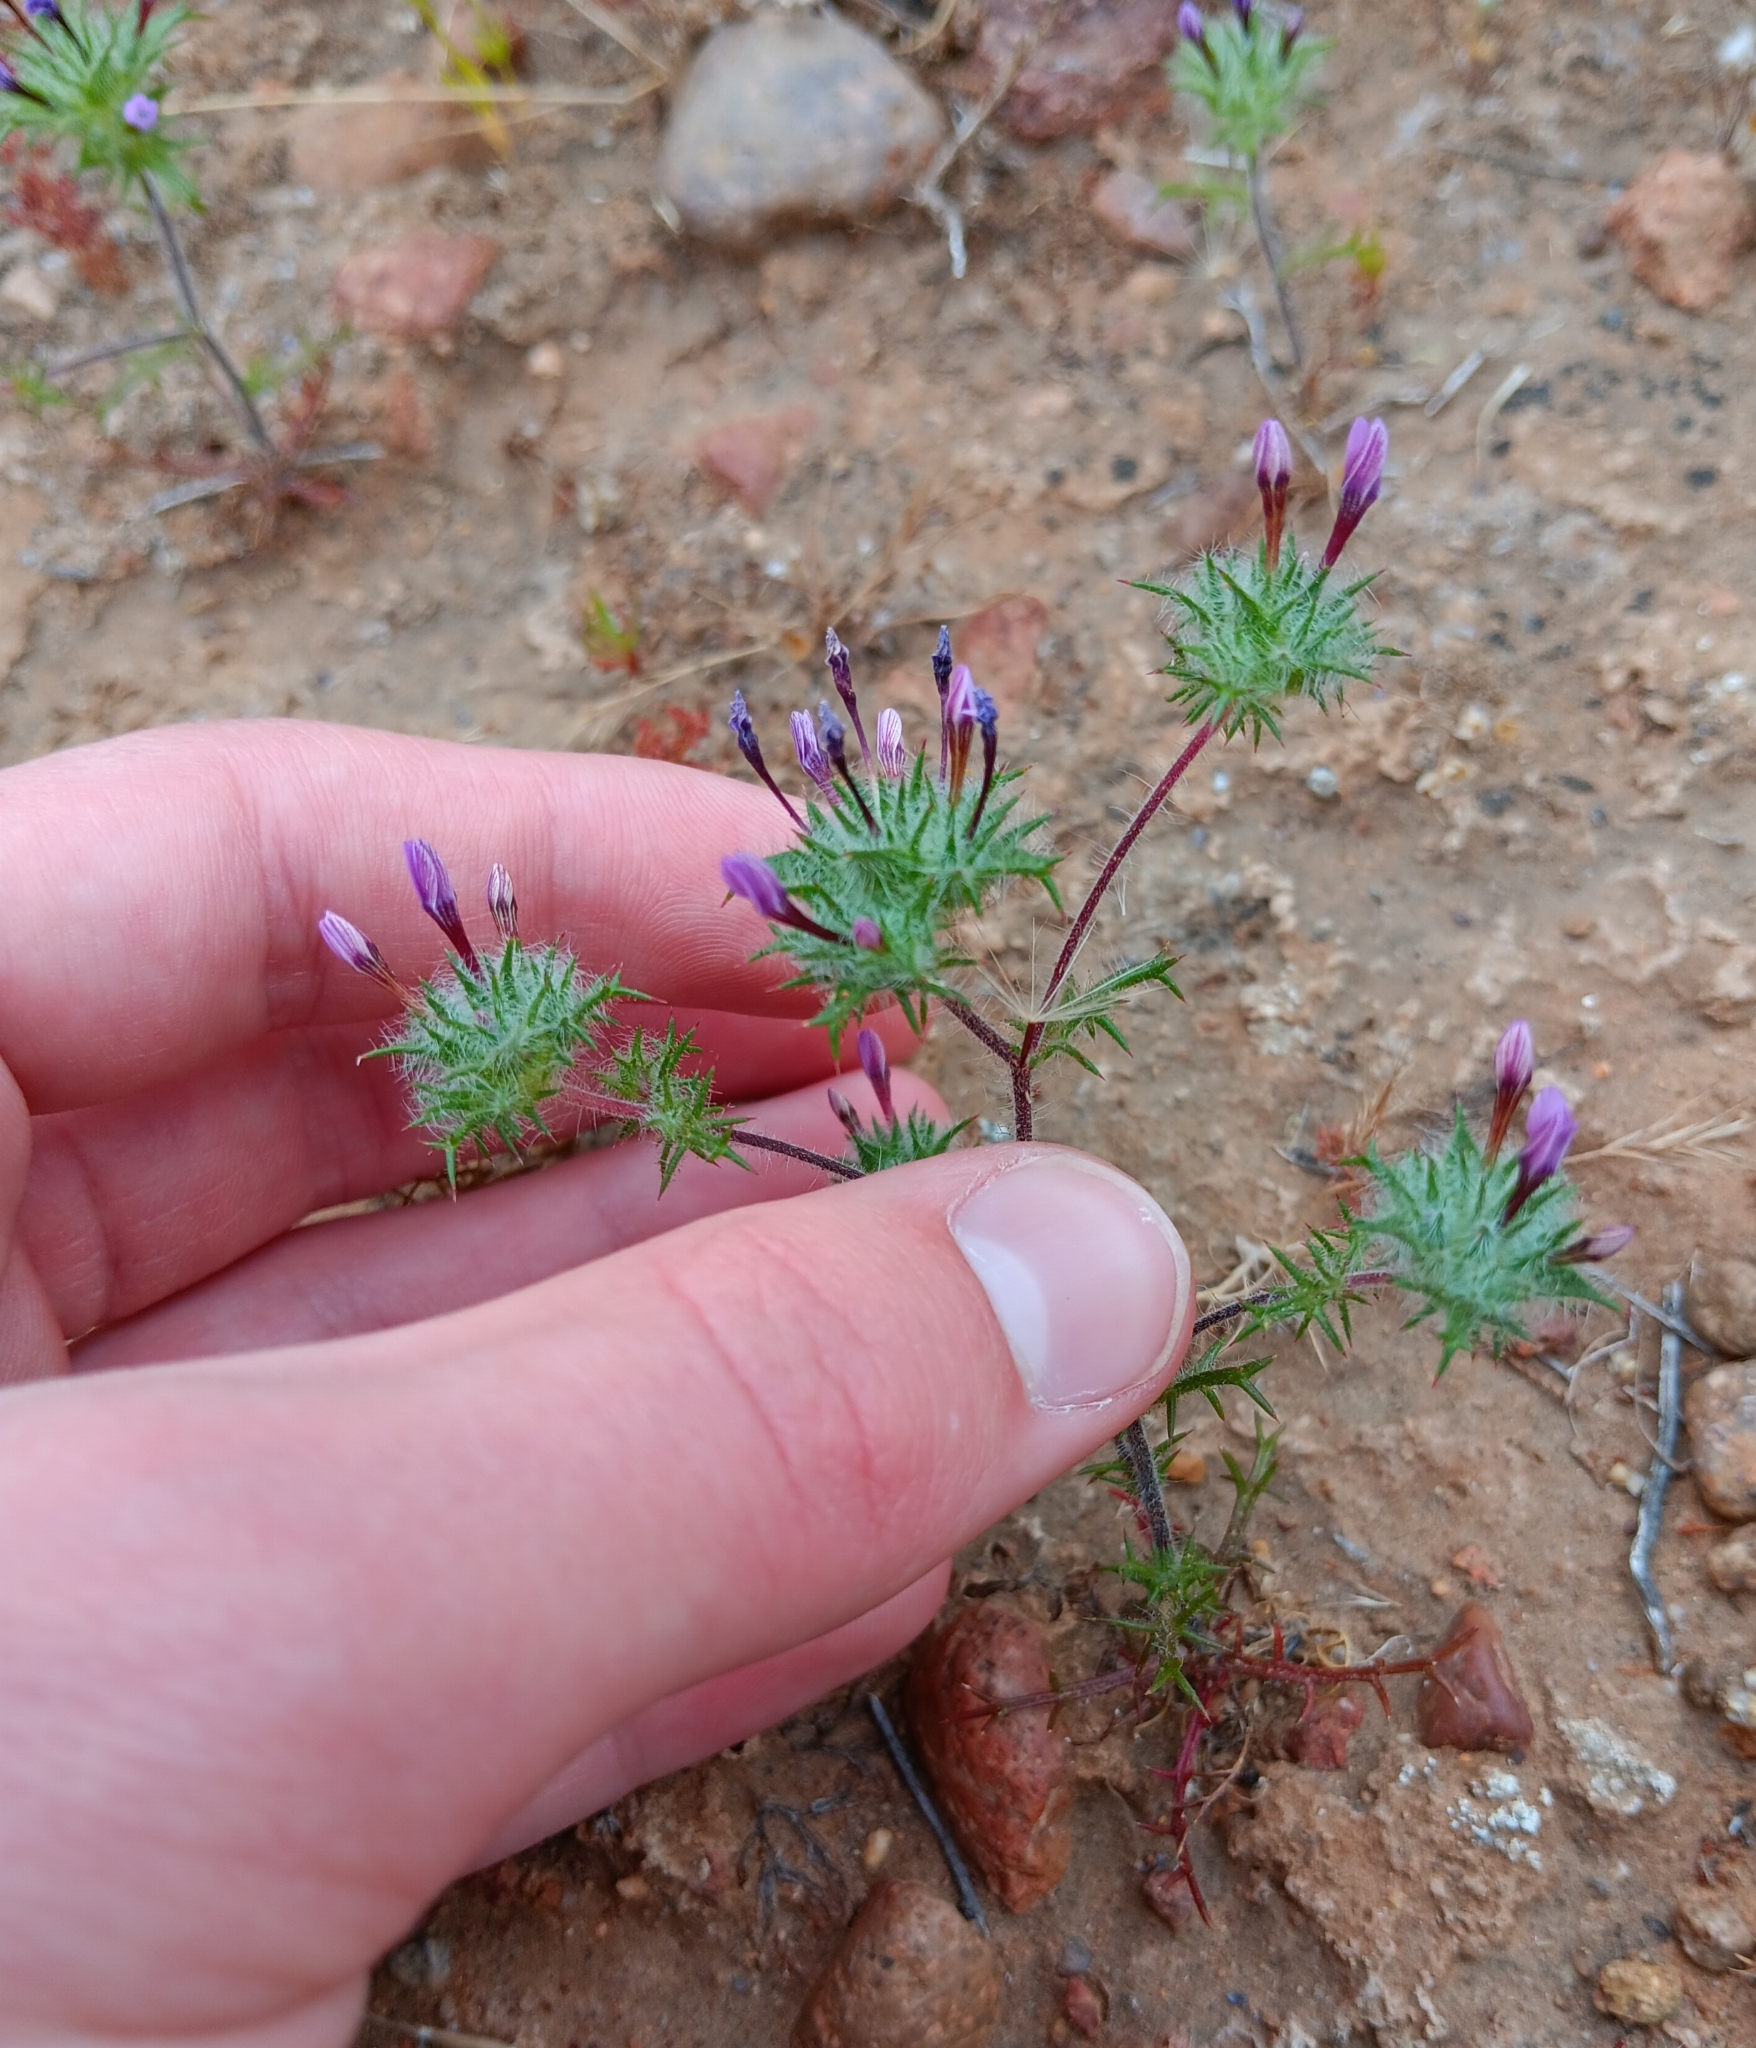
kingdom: Plantae
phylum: Tracheophyta
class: Magnoliopsida
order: Ericales
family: Polemoniaceae
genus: Navarretia
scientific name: Navarretia hamata
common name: Hooked navarretia
